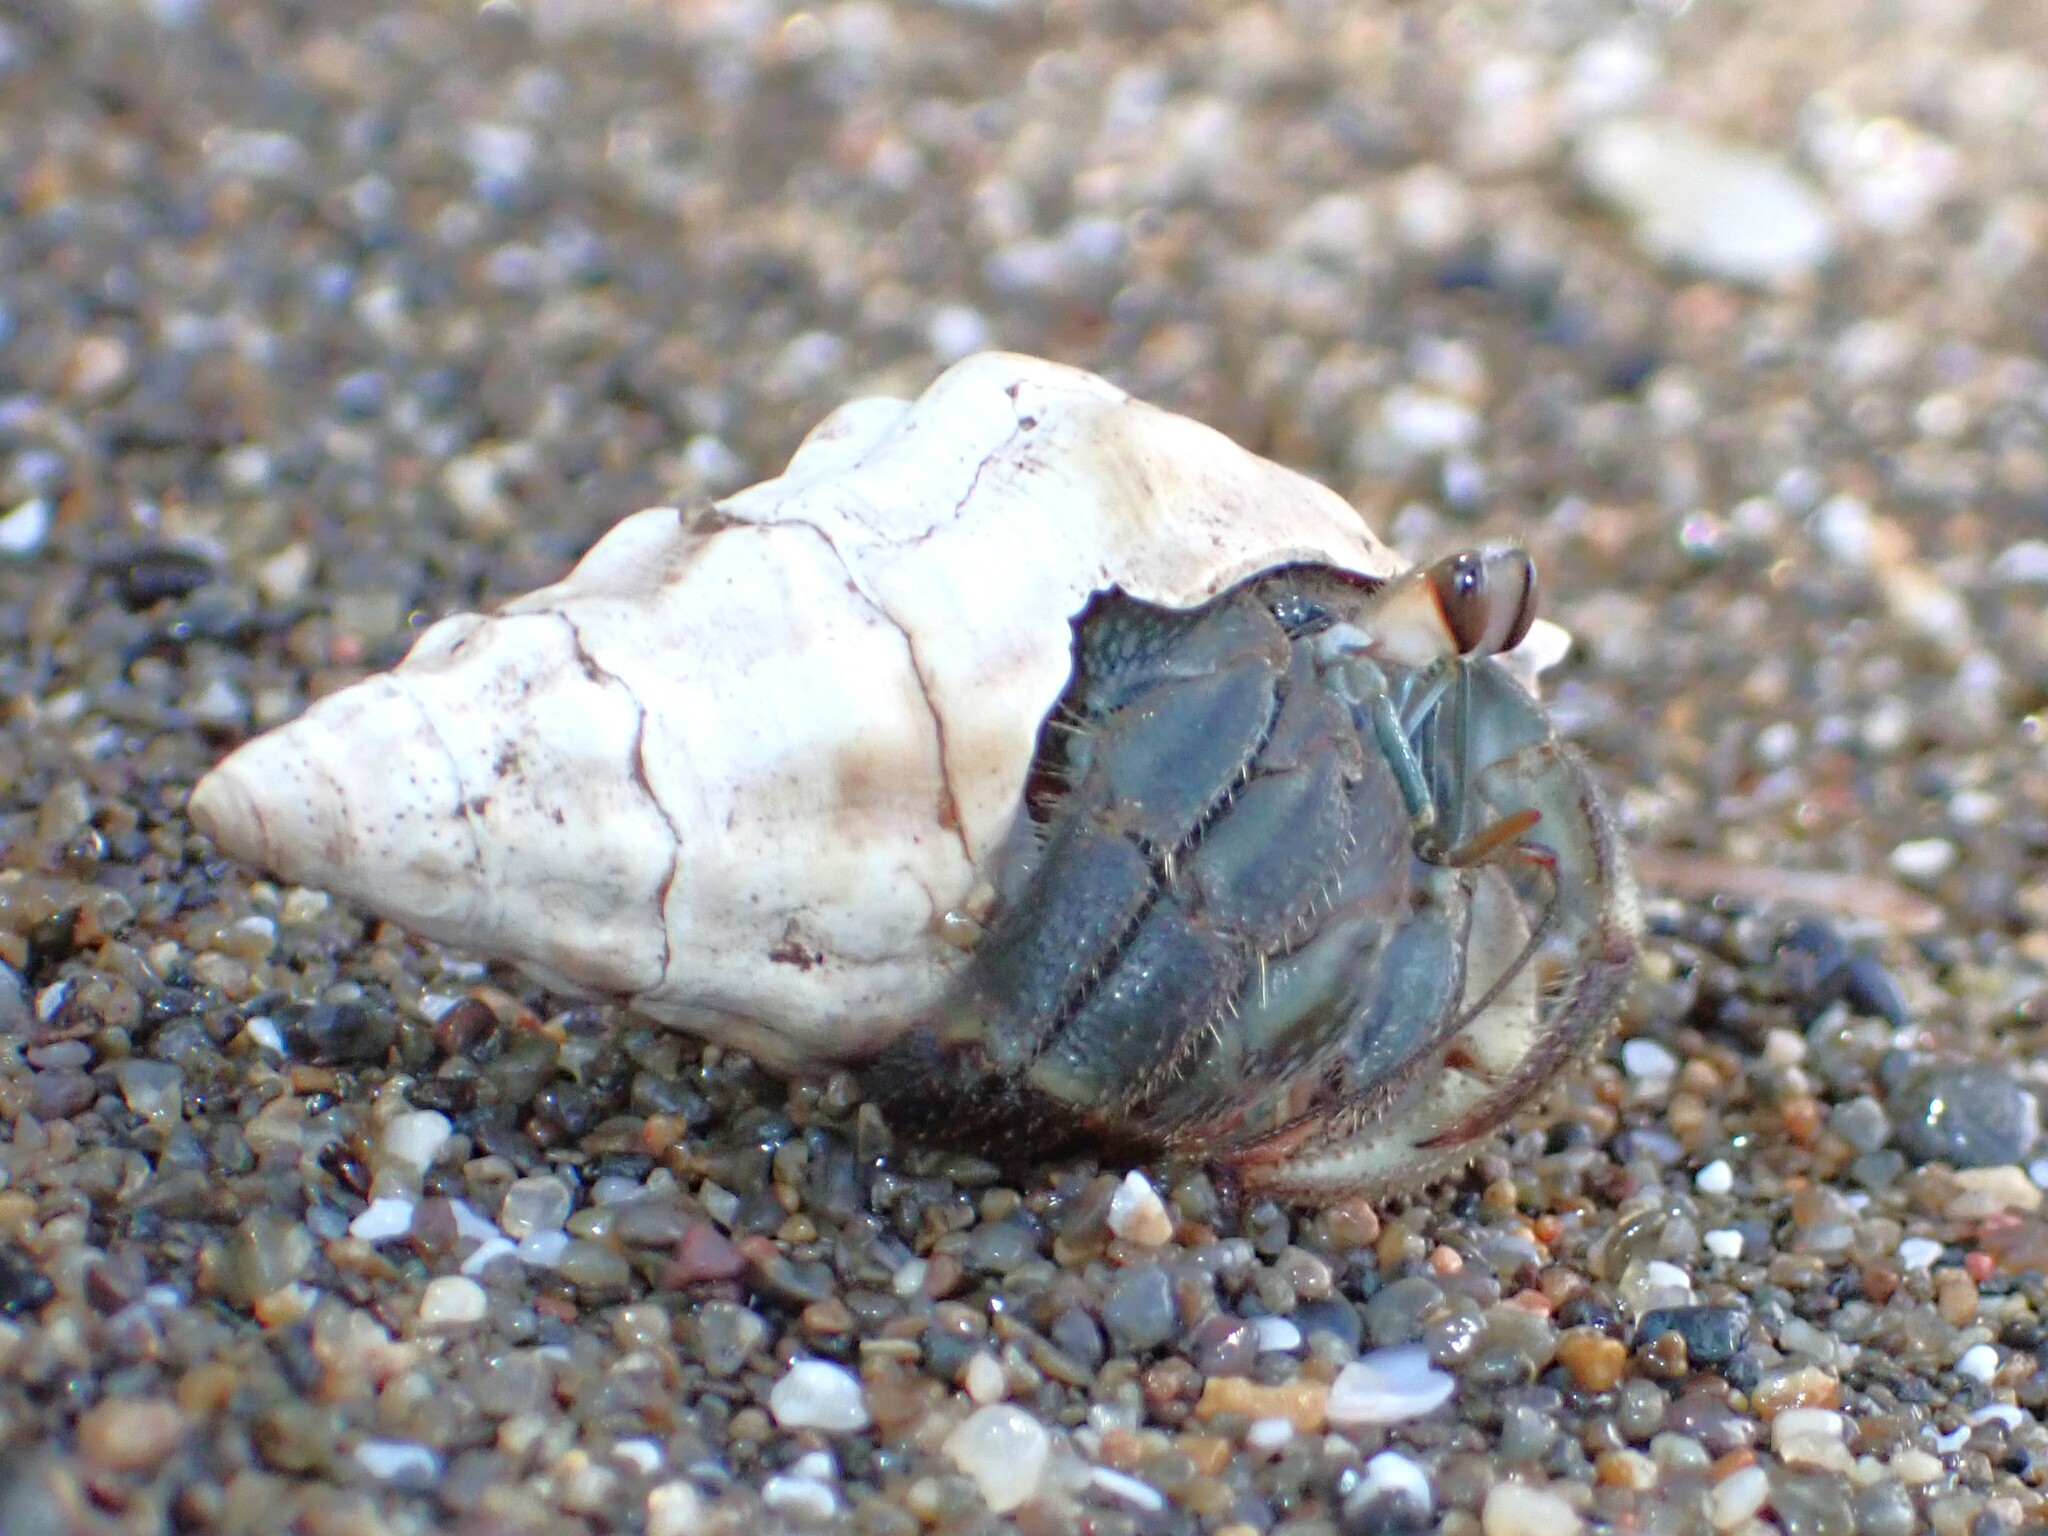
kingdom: Animalia
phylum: Arthropoda
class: Malacostraca
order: Decapoda
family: Coenobitidae
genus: Coenobita
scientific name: Coenobita compressus
